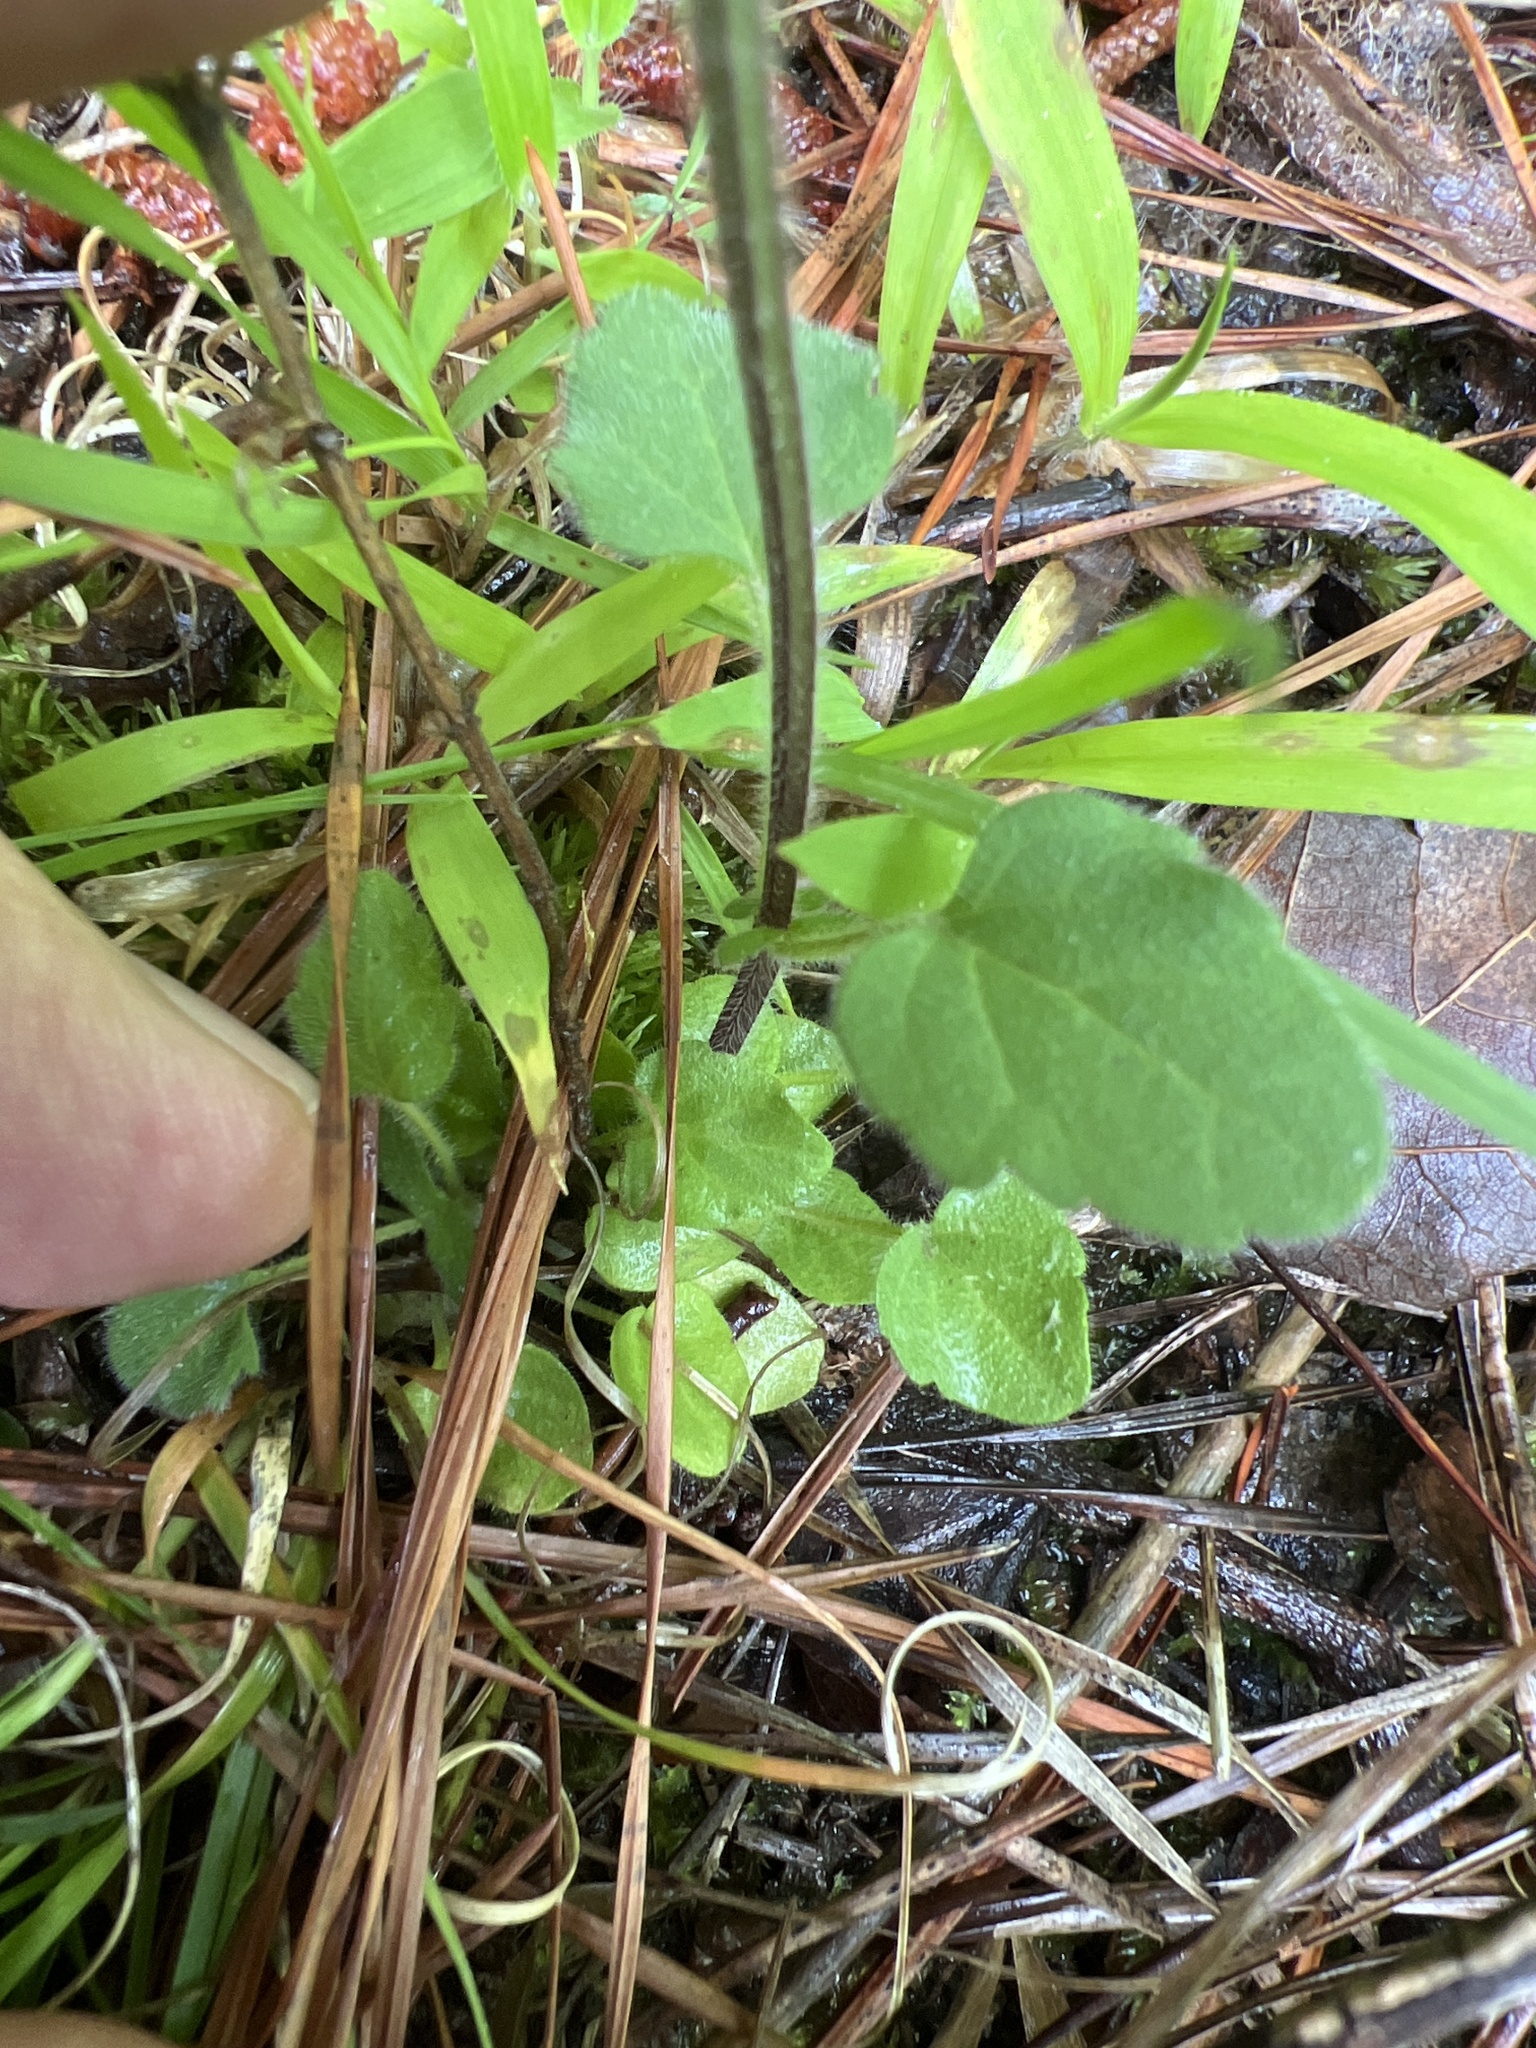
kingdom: Plantae
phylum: Tracheophyta
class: Magnoliopsida
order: Lamiales
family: Lamiaceae
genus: Scutellaria
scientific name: Scutellaria integrifolia
